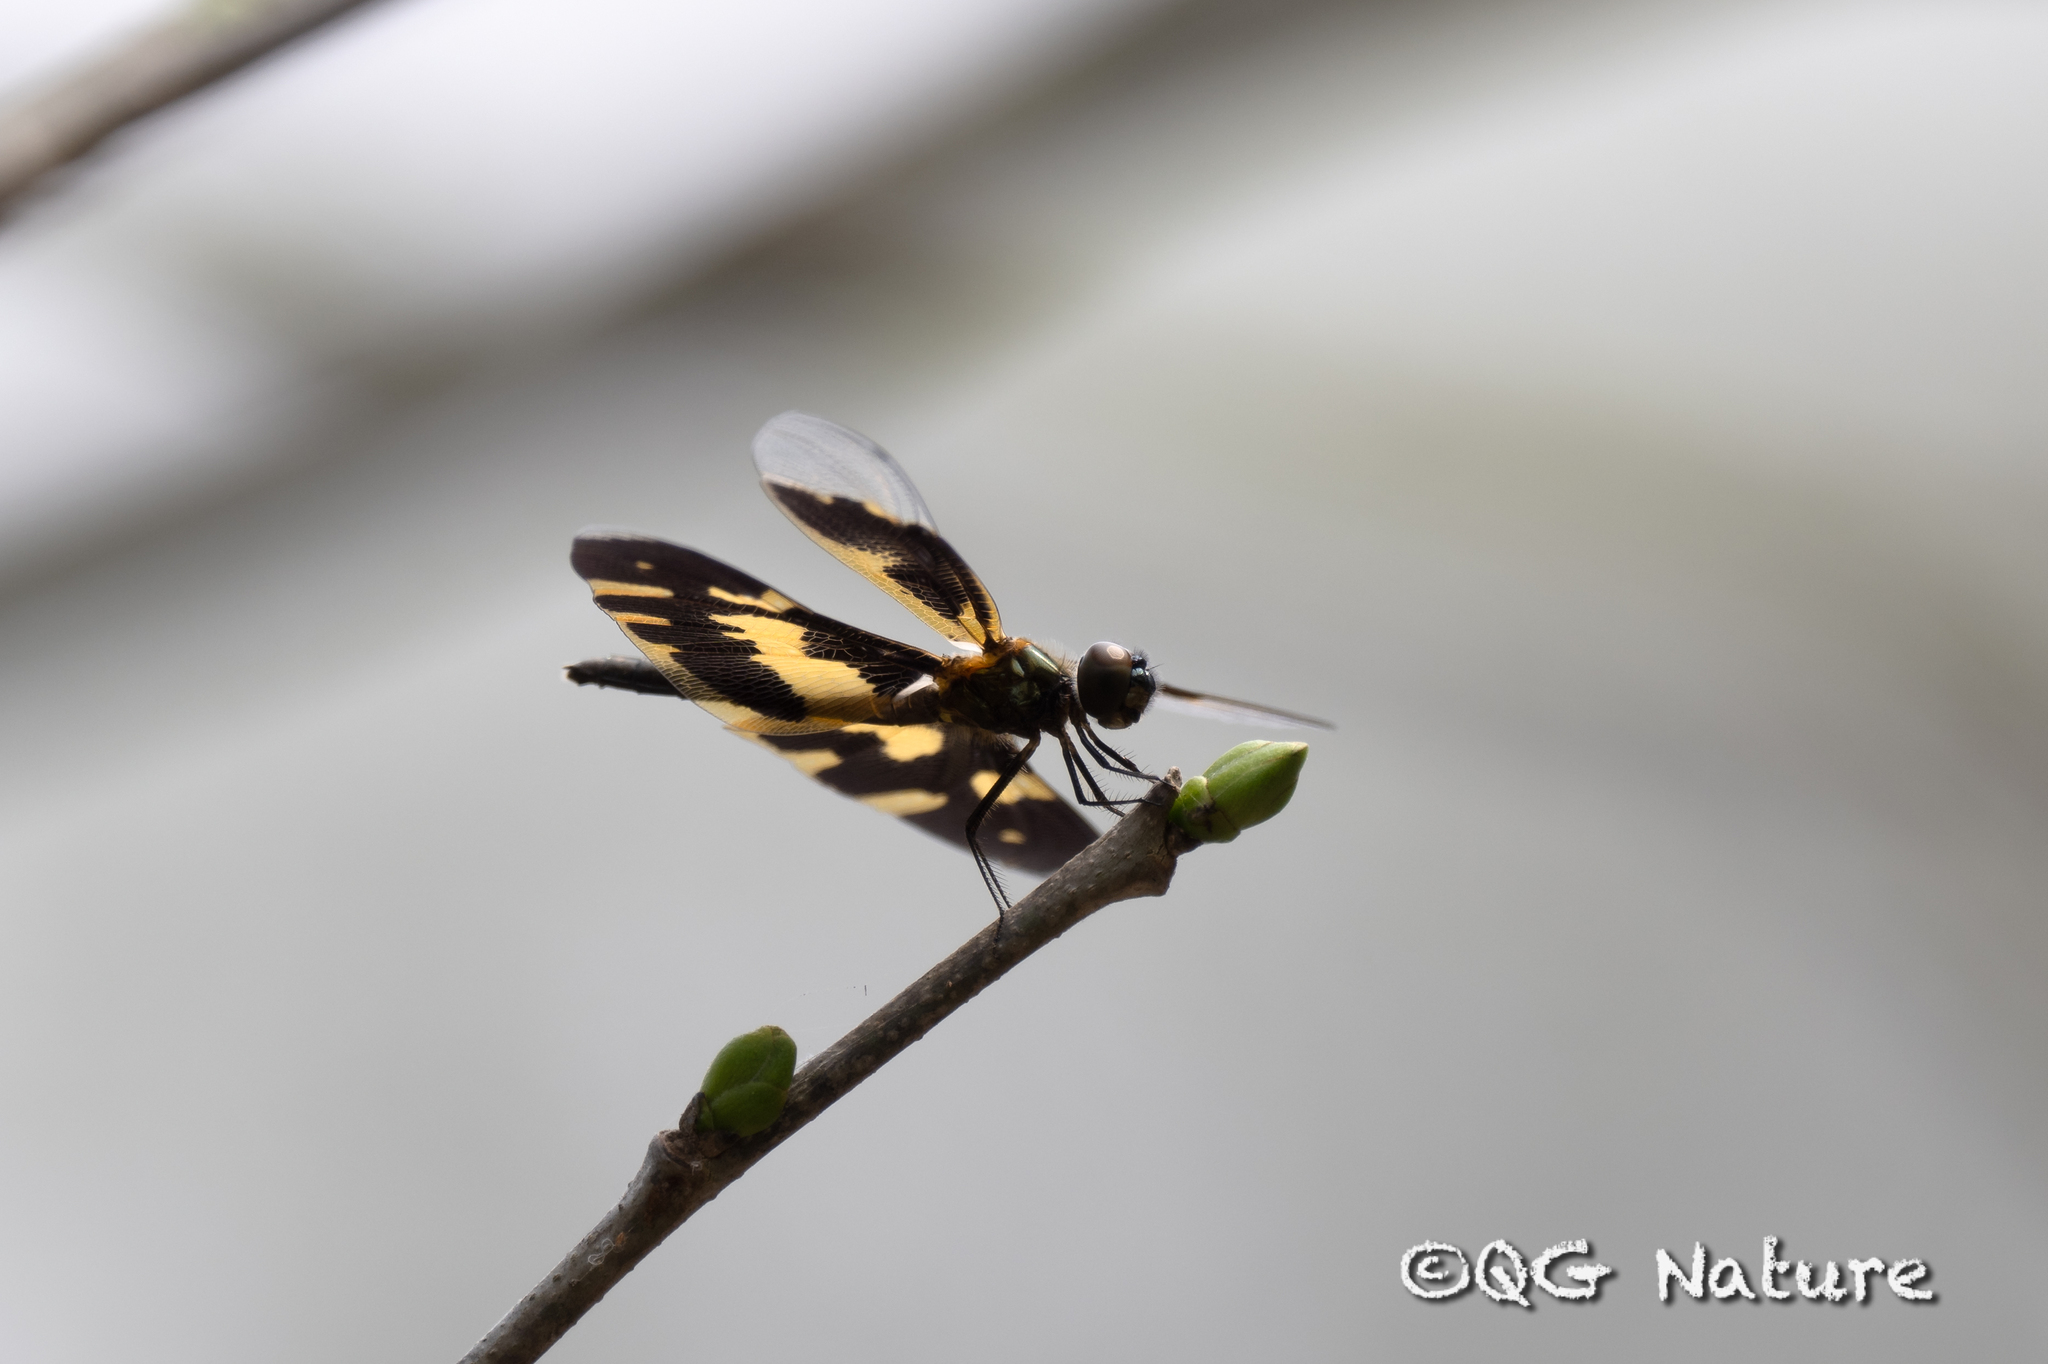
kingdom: Animalia
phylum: Arthropoda
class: Insecta
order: Odonata
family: Libellulidae
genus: Rhyothemis
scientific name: Rhyothemis variegata
